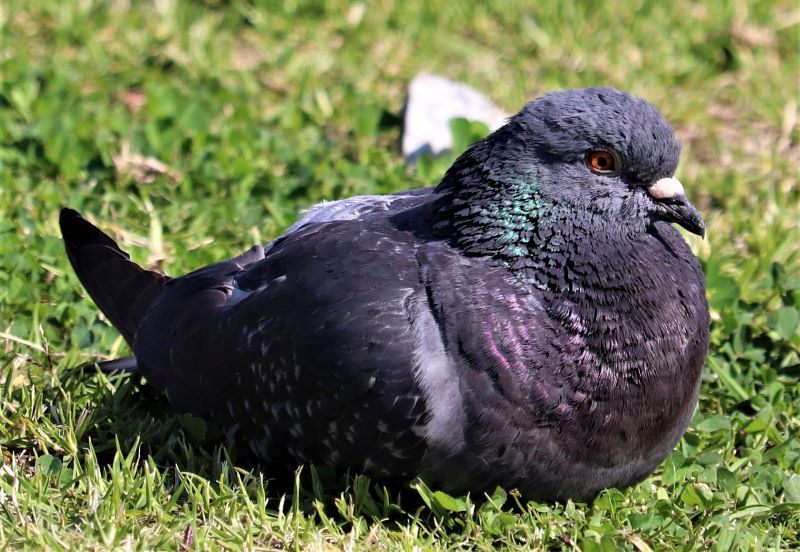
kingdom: Animalia
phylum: Chordata
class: Aves
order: Columbiformes
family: Columbidae
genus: Columba
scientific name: Columba livia
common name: Rock pigeon
